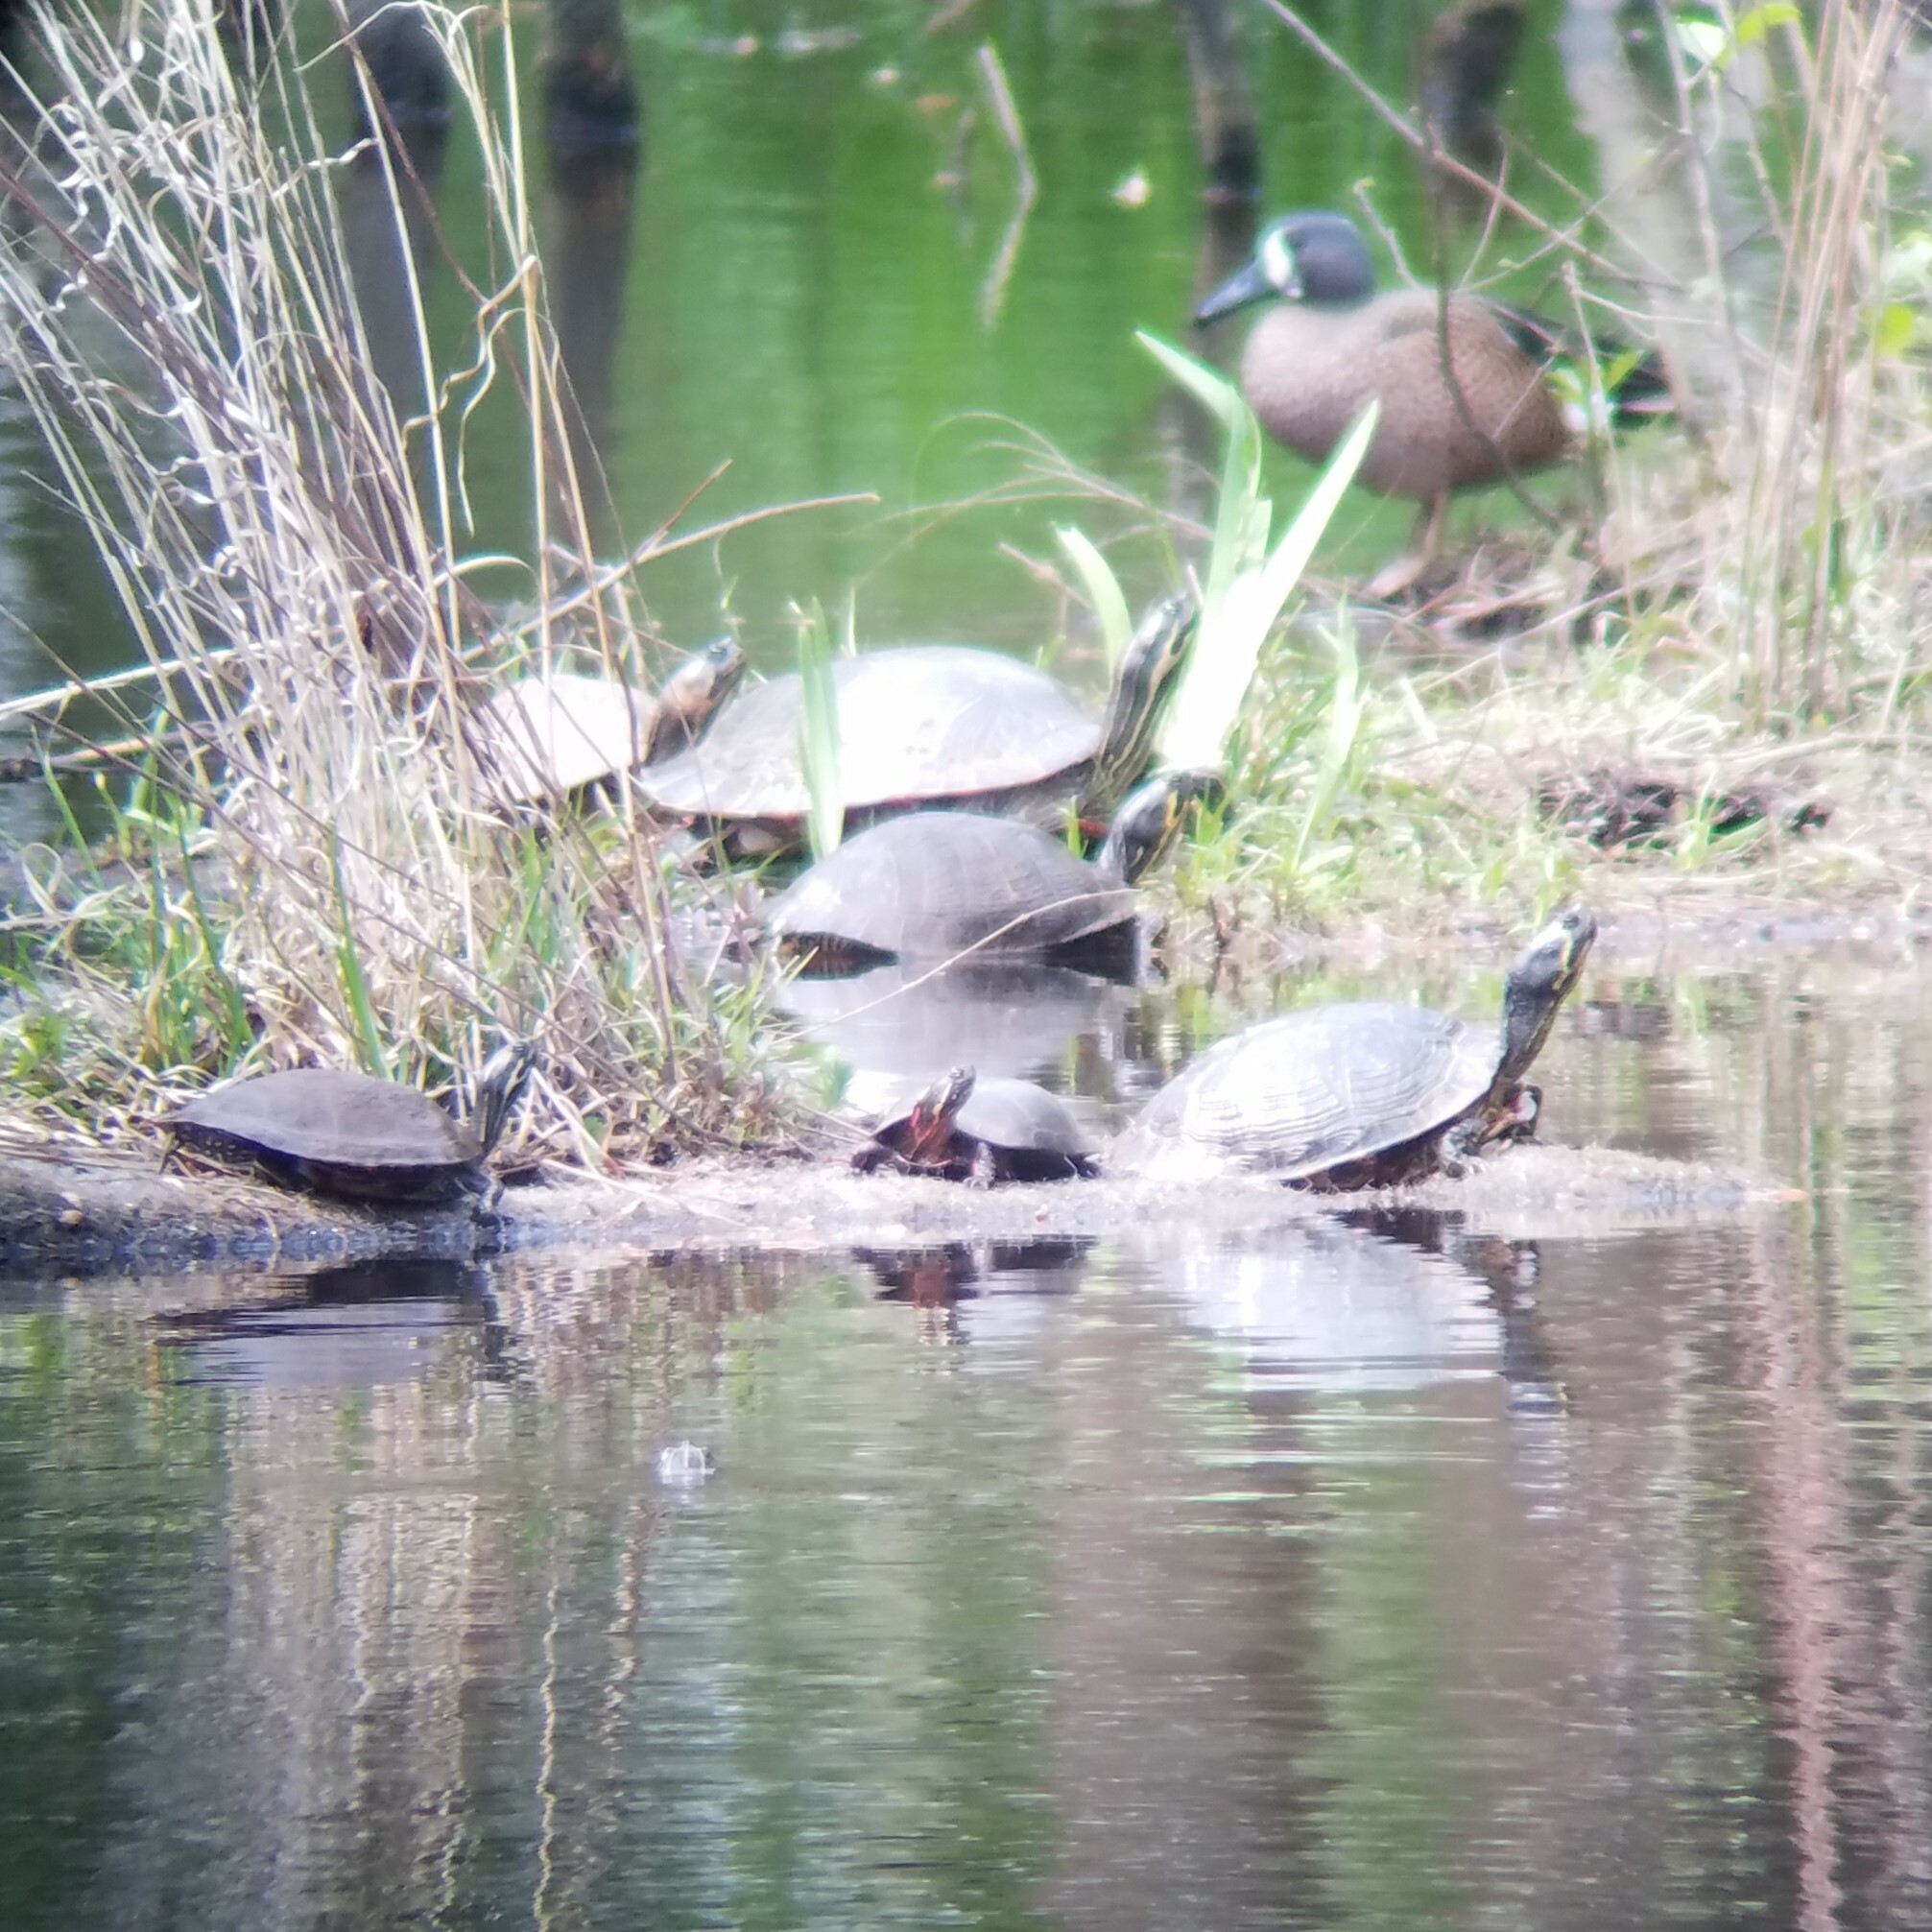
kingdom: Animalia
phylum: Chordata
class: Testudines
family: Emydidae
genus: Chrysemys
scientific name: Chrysemys picta
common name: Painted turtle
